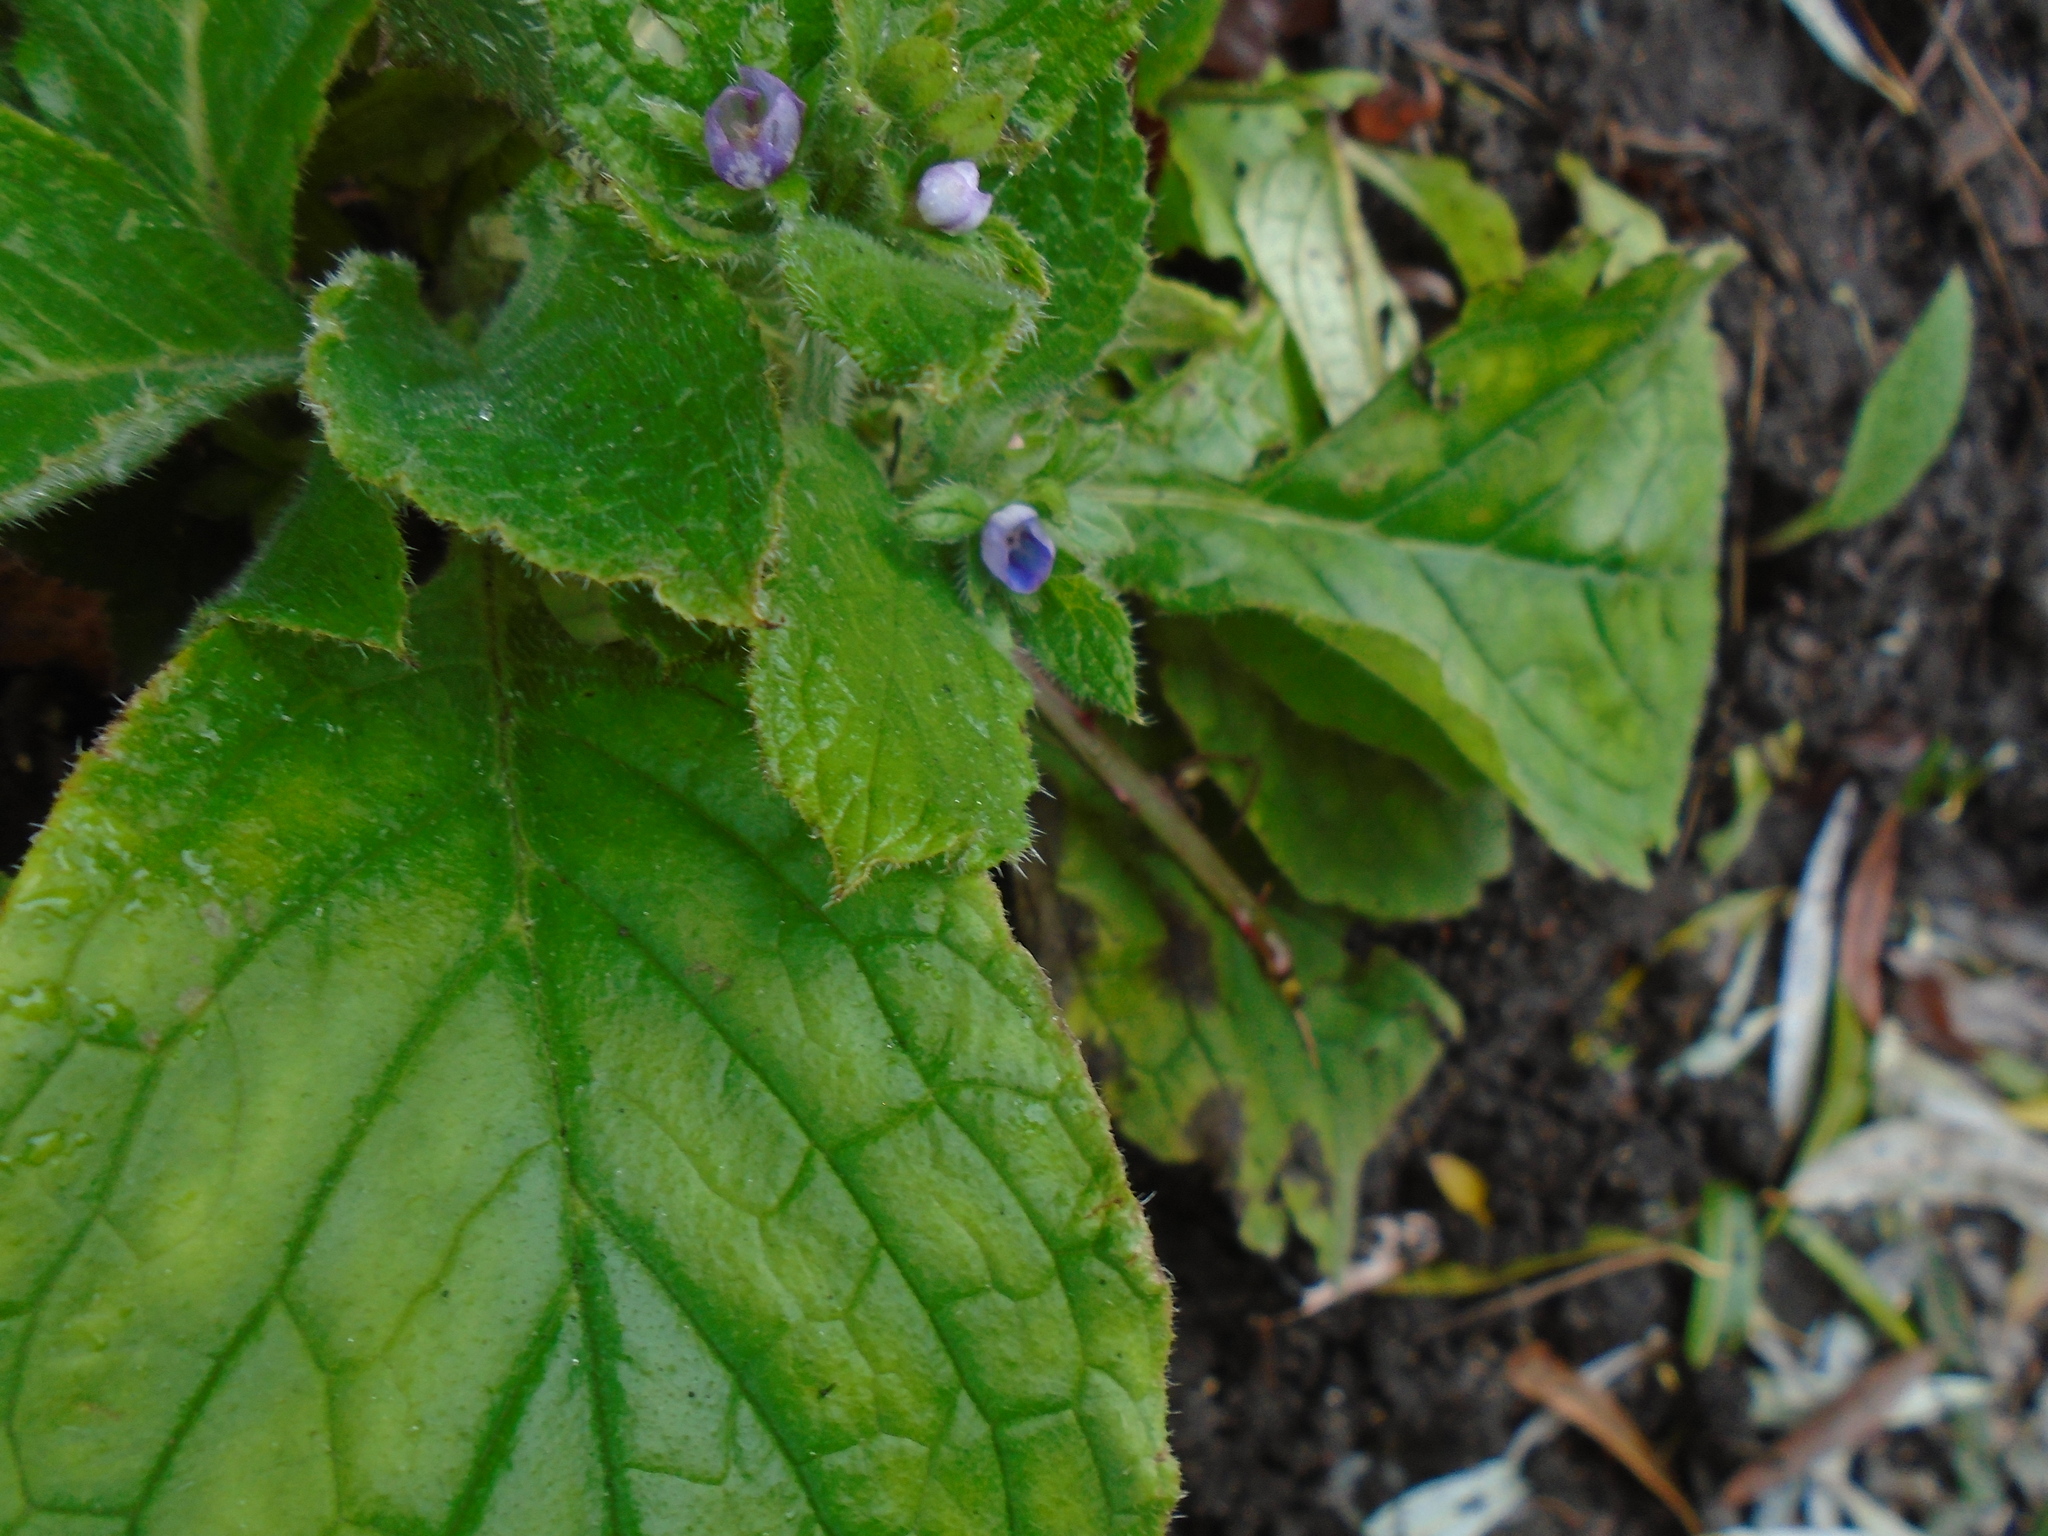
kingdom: Plantae
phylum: Tracheophyta
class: Magnoliopsida
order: Boraginales
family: Boraginaceae
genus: Pentaglottis
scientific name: Pentaglottis sempervirens
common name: Green alkanet
